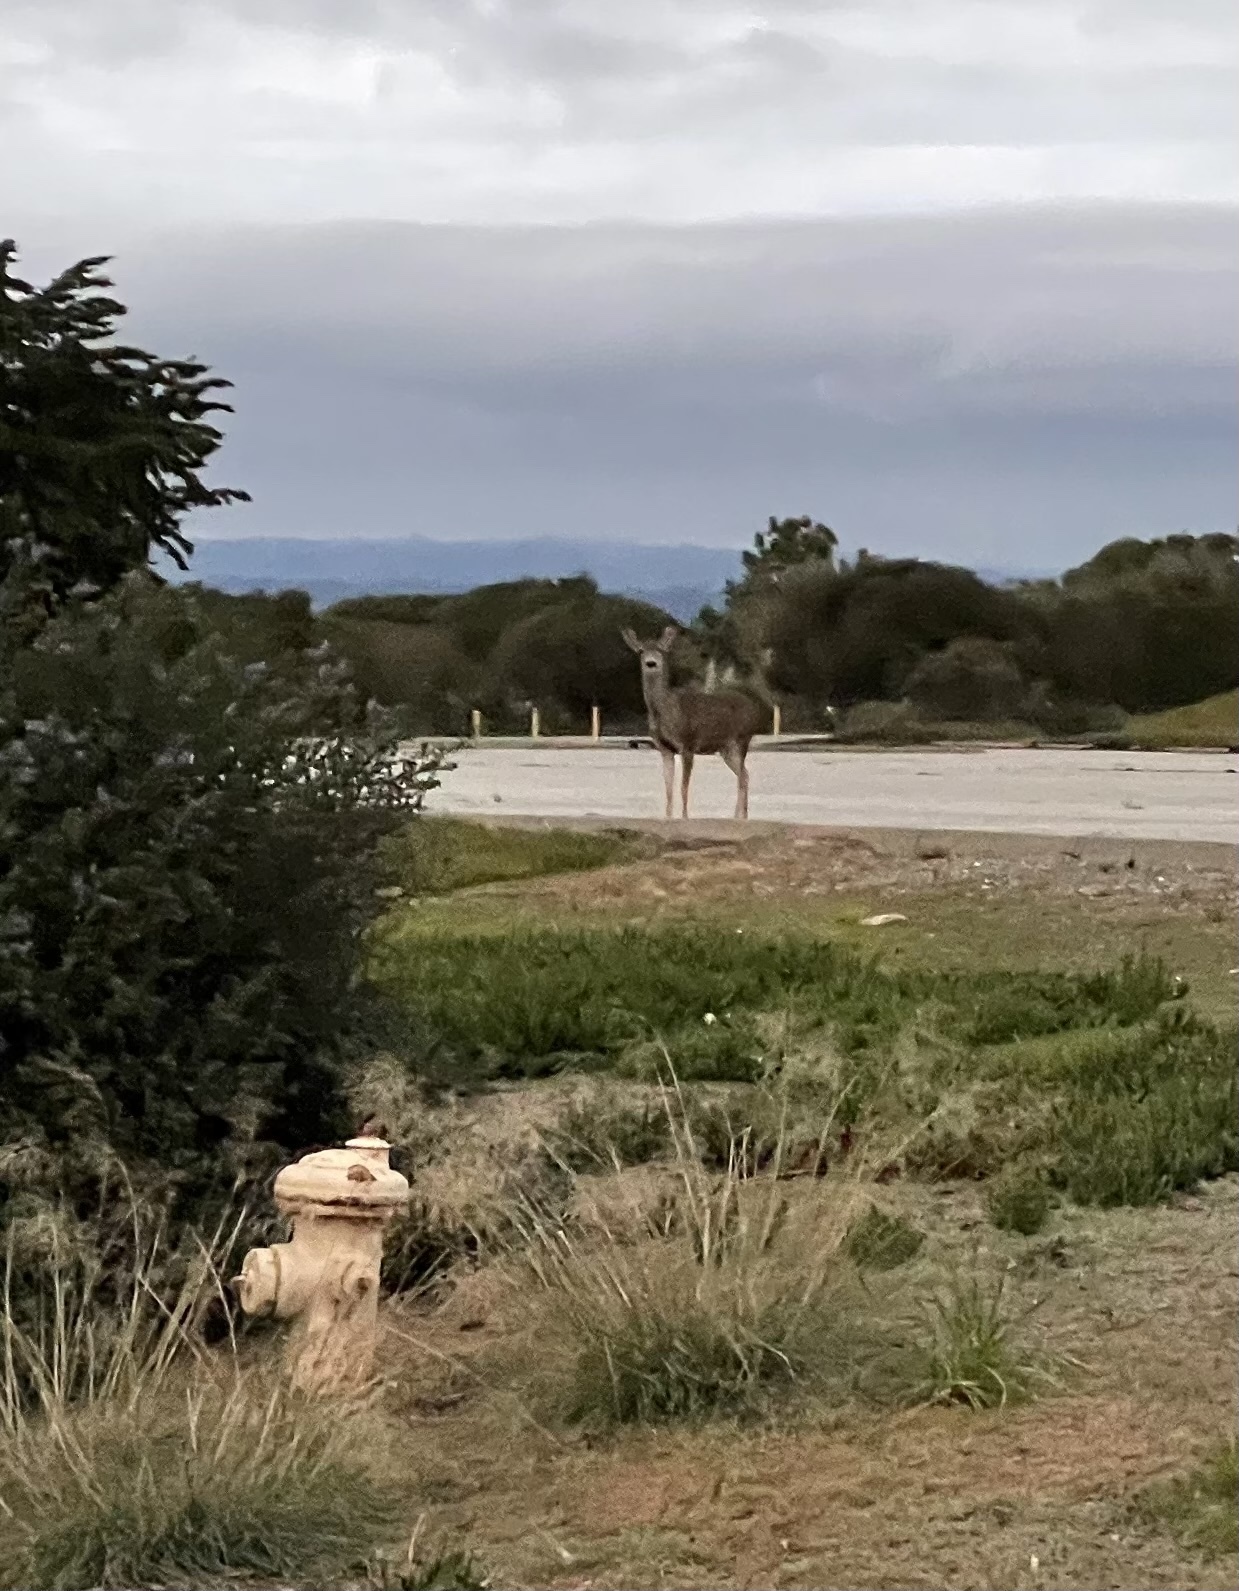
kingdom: Animalia
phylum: Chordata
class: Mammalia
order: Artiodactyla
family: Cervidae
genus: Odocoileus
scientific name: Odocoileus hemionus
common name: Mule deer
